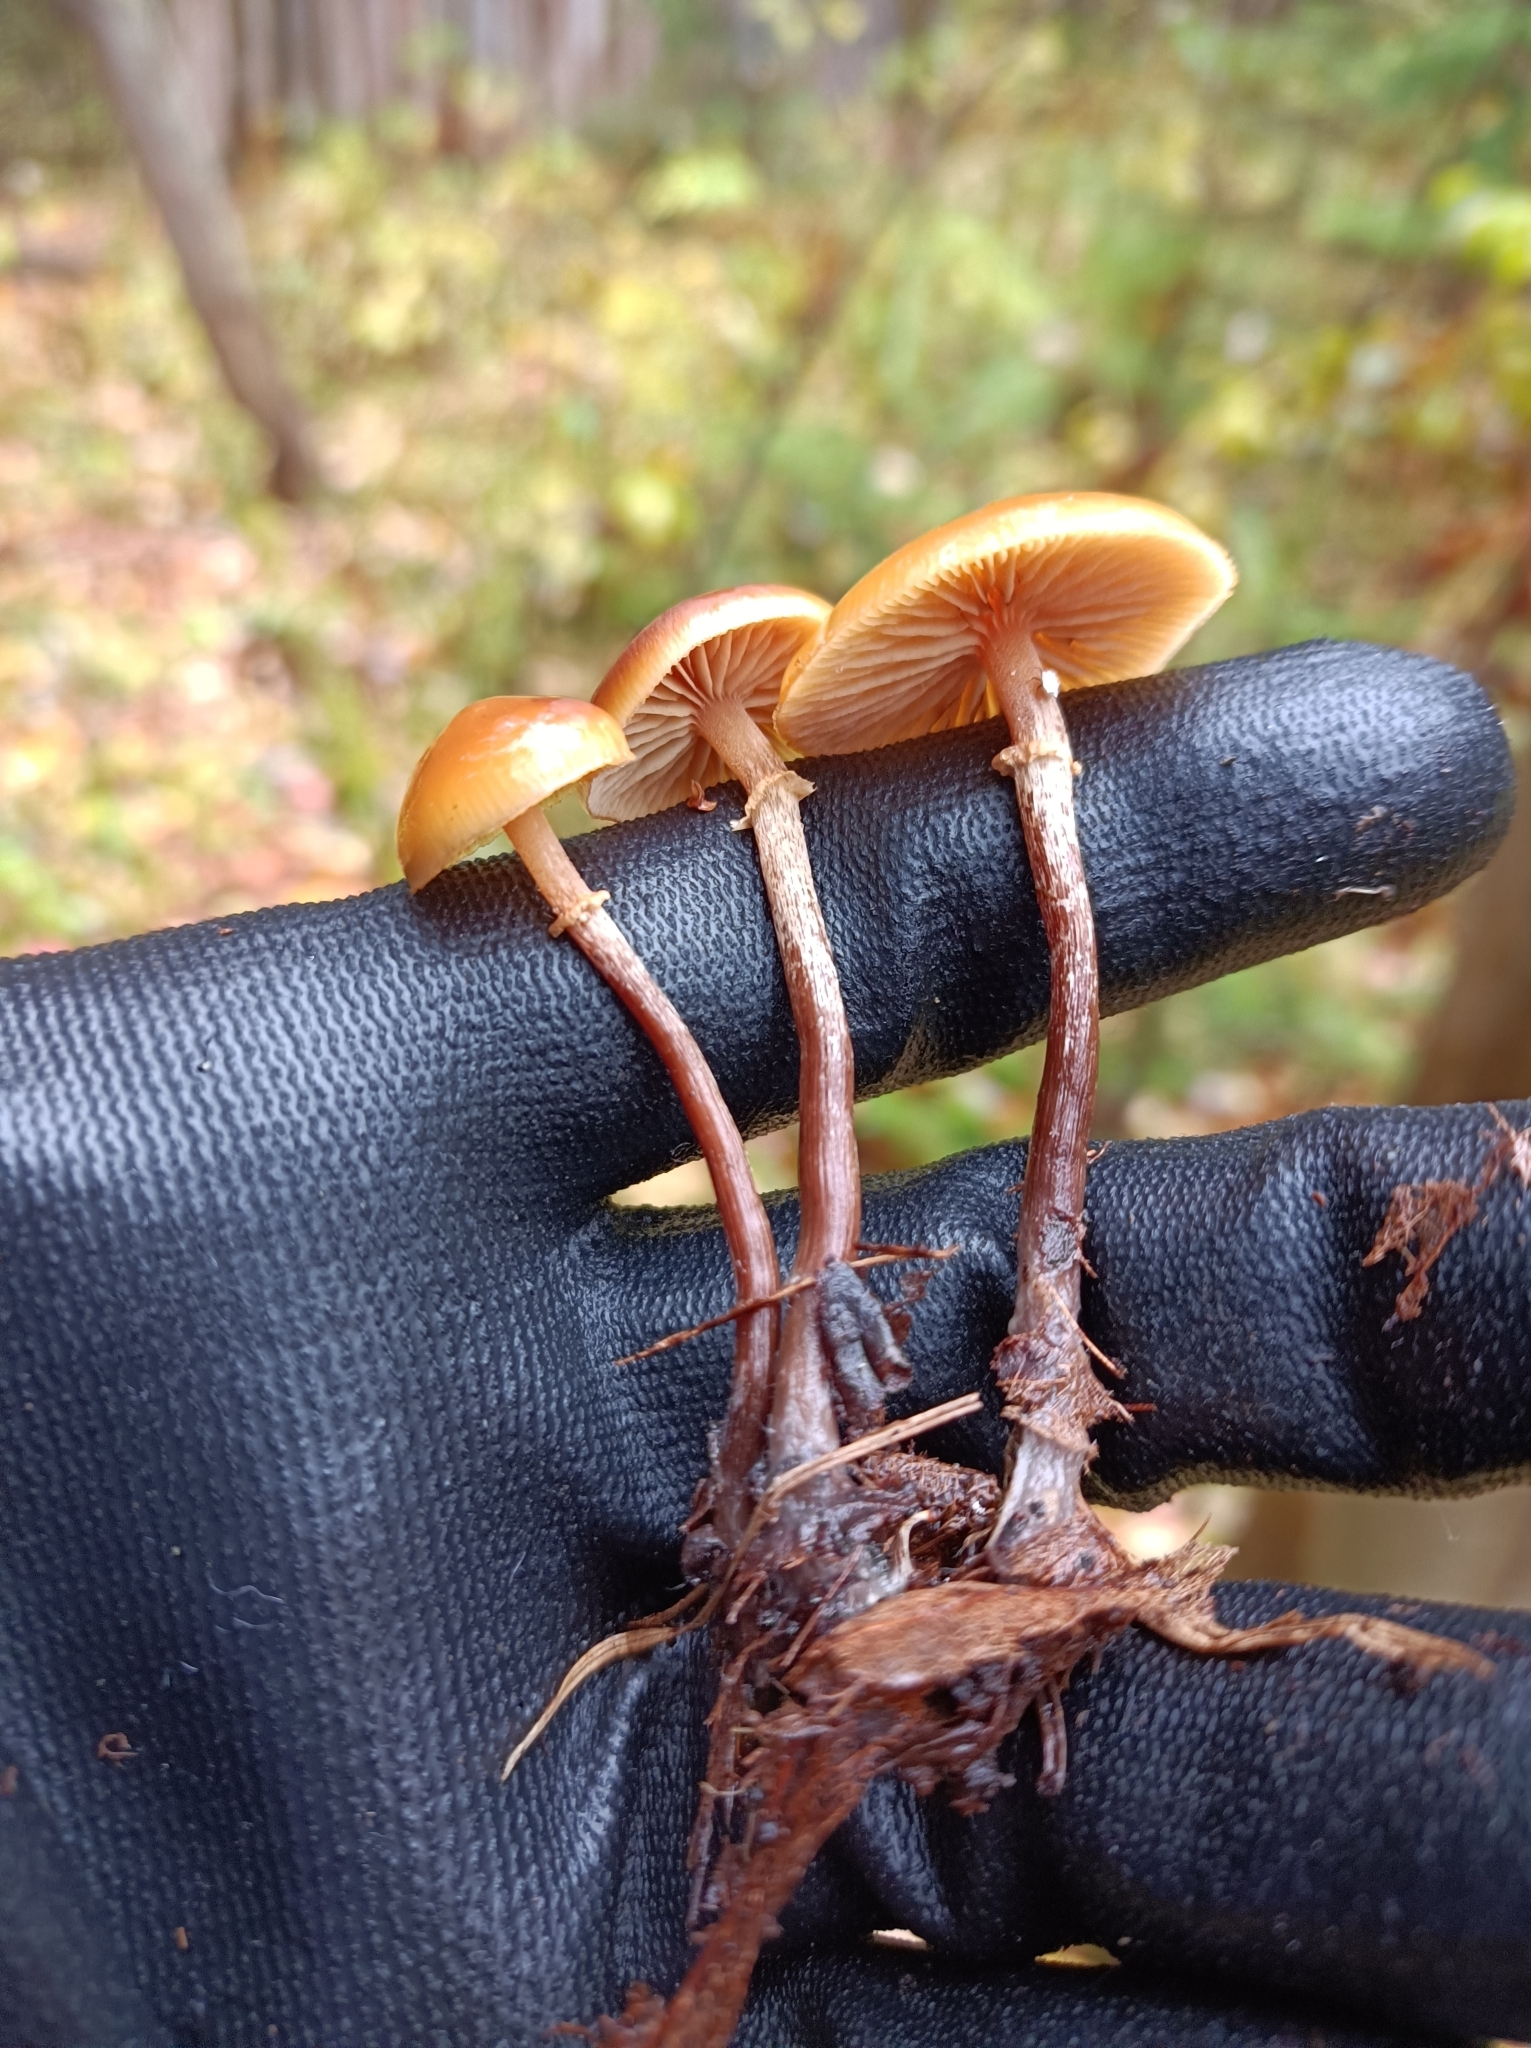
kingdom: Fungi
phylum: Basidiomycota
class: Agaricomycetes
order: Agaricales
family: Hymenogastraceae
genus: Galerina
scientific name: Galerina marginata
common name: Funeral bell
